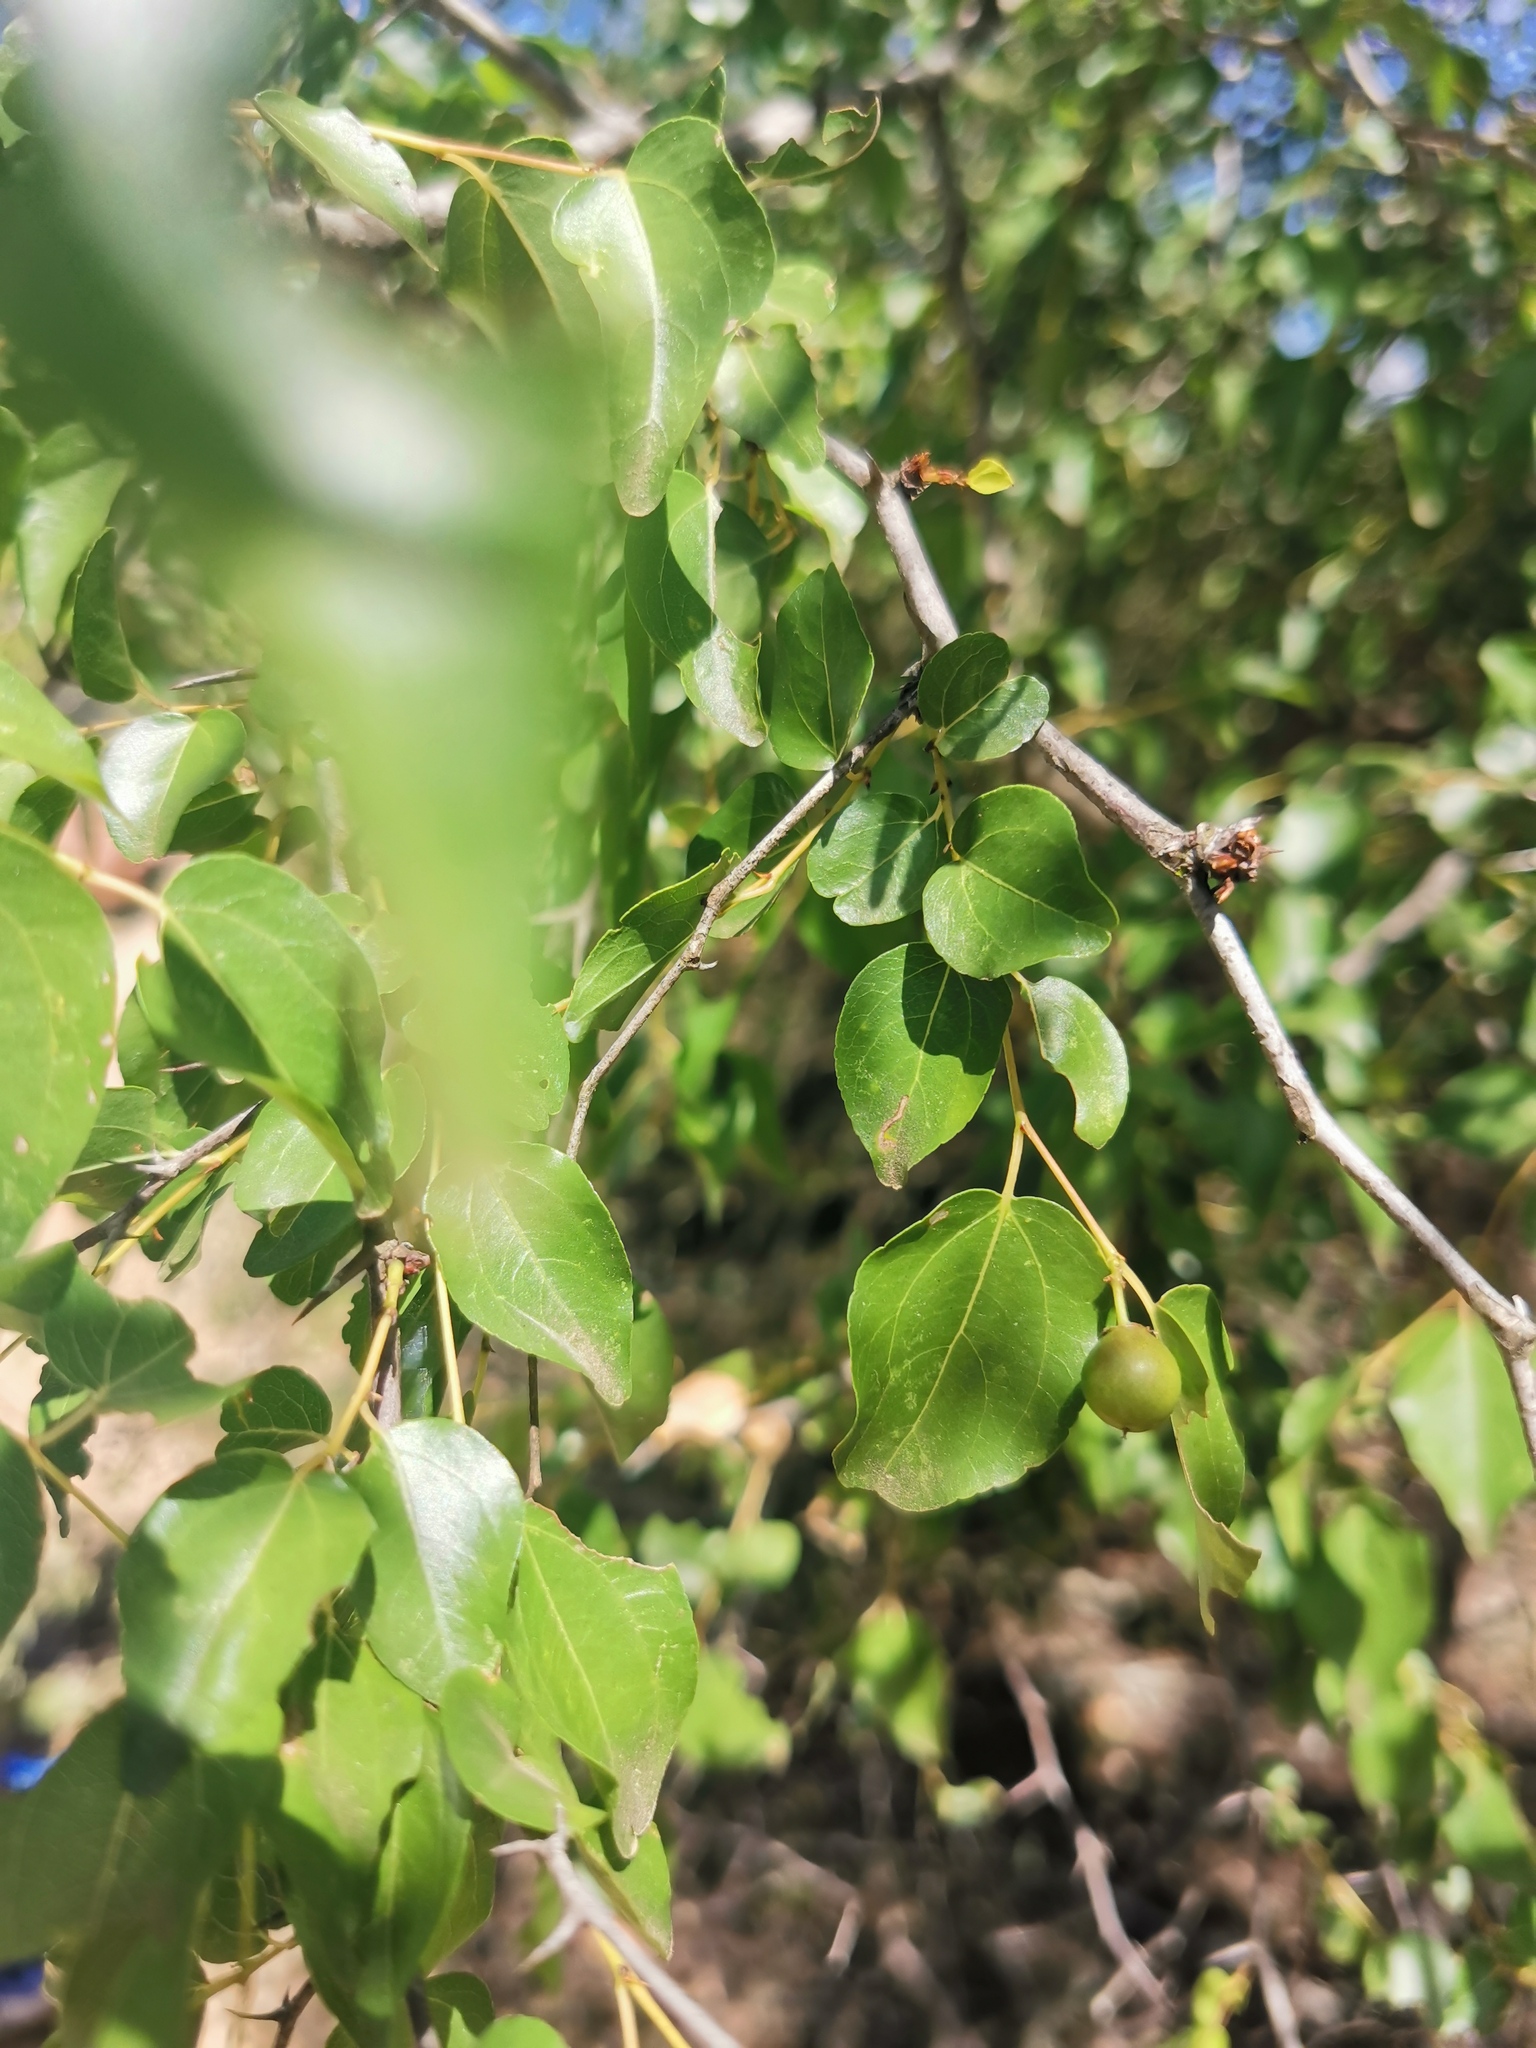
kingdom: Plantae
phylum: Tracheophyta
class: Magnoliopsida
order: Rosales
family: Rhamnaceae
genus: Ziziphus
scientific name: Ziziphus mucronata
